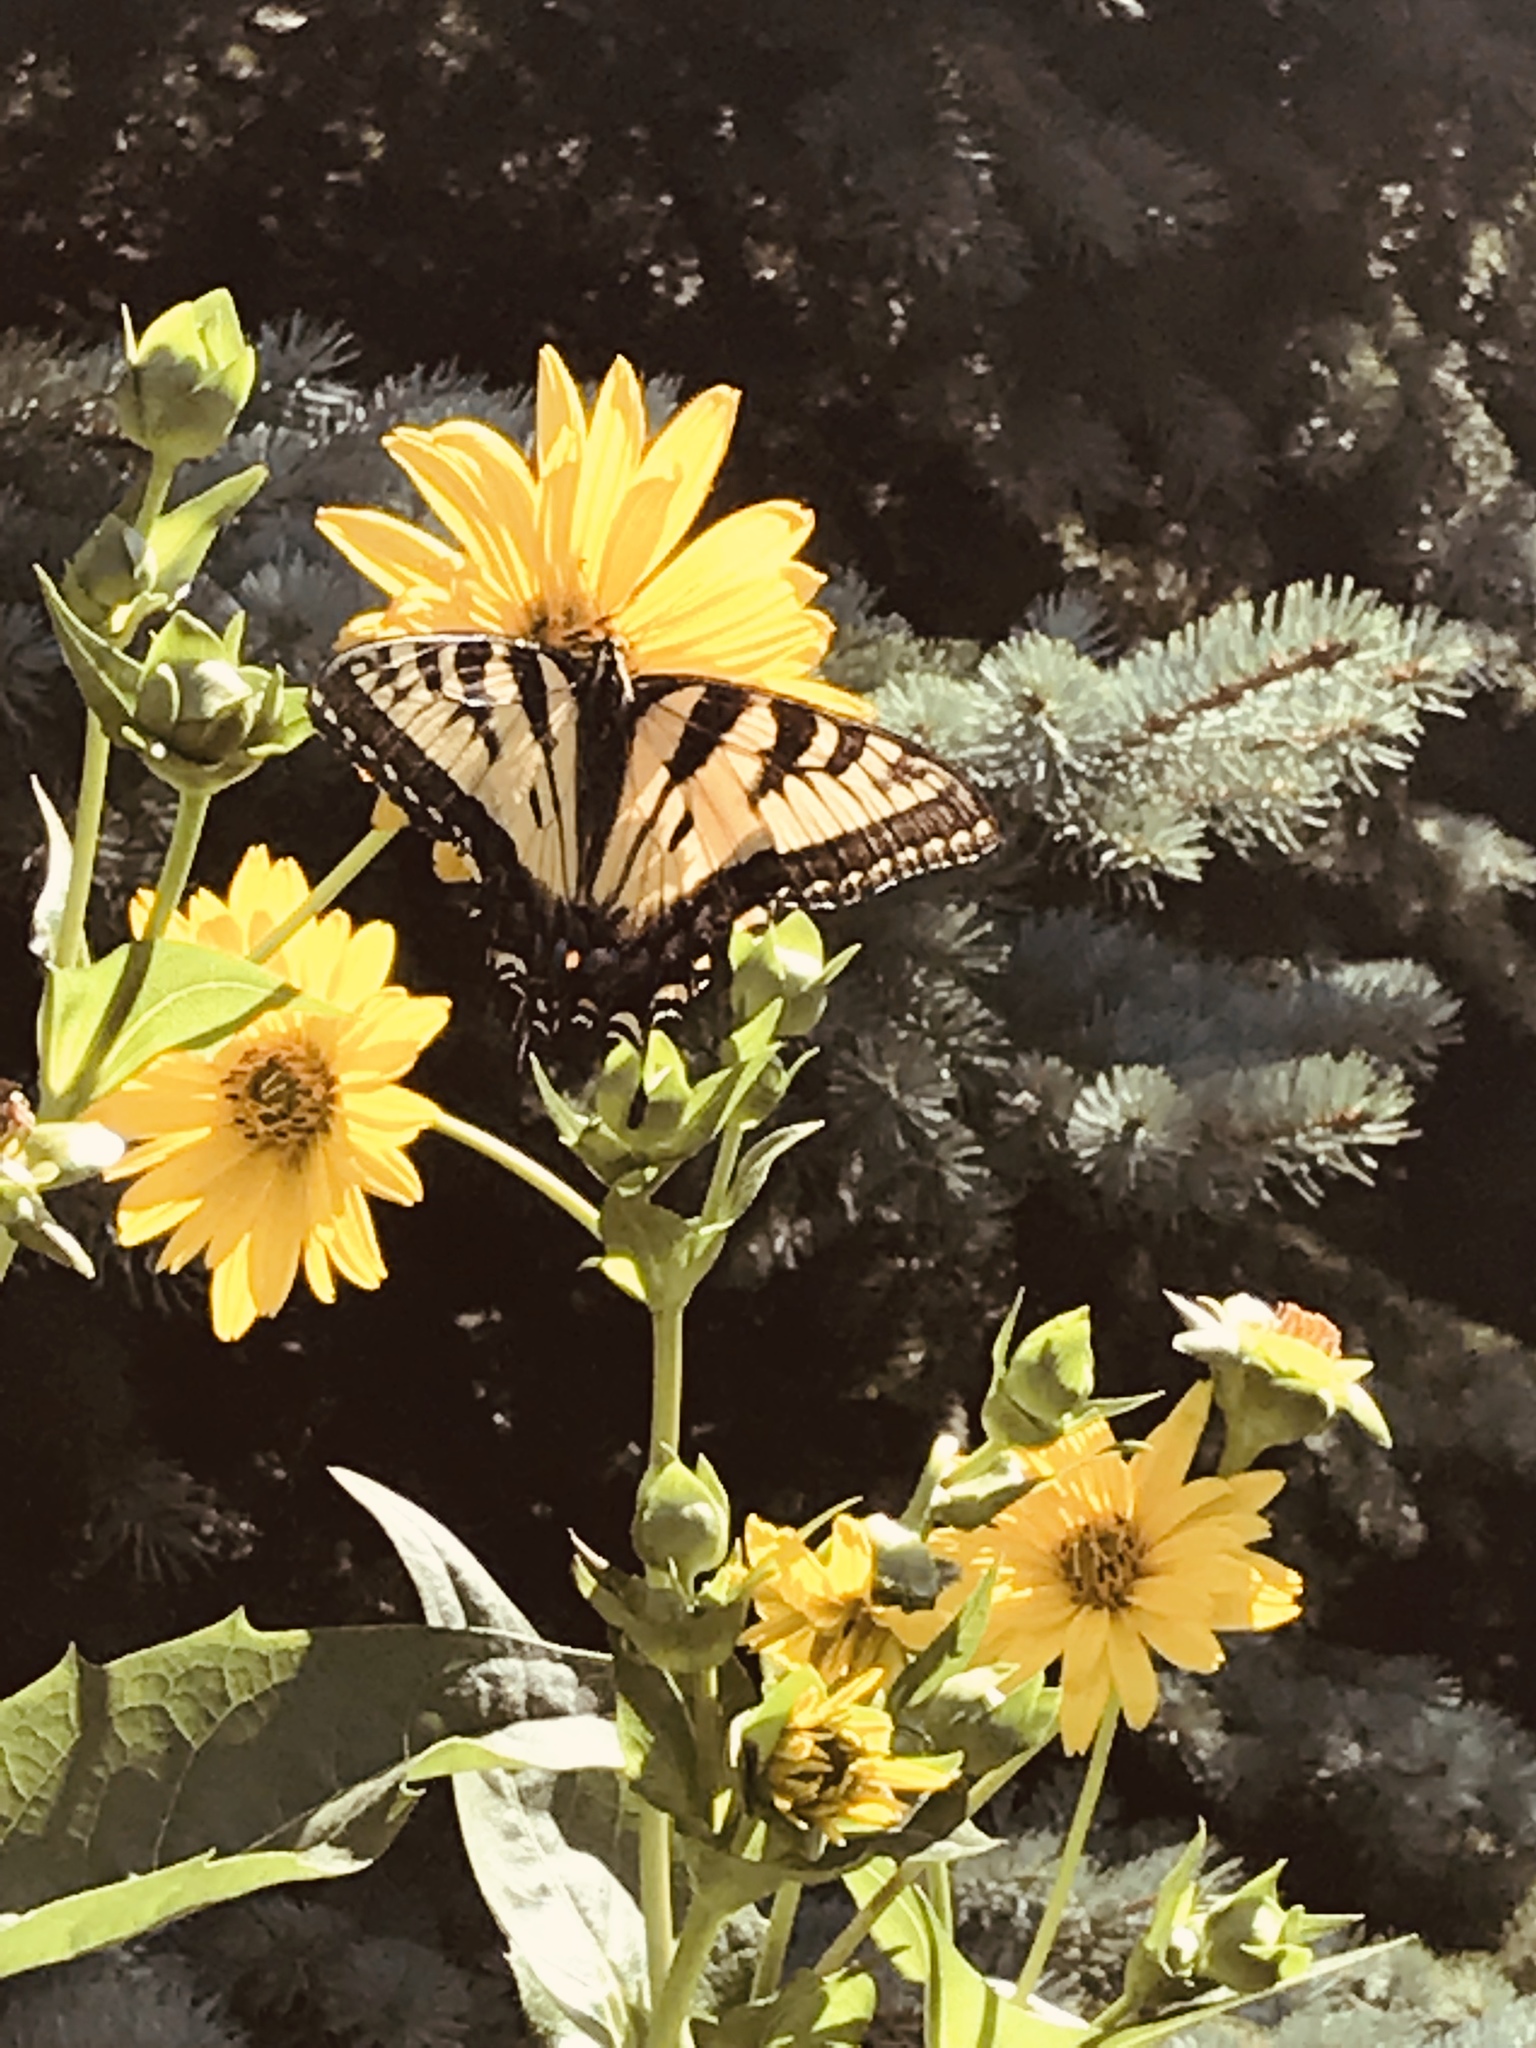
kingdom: Animalia
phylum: Arthropoda
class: Insecta
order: Lepidoptera
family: Papilionidae
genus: Papilio
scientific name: Papilio
